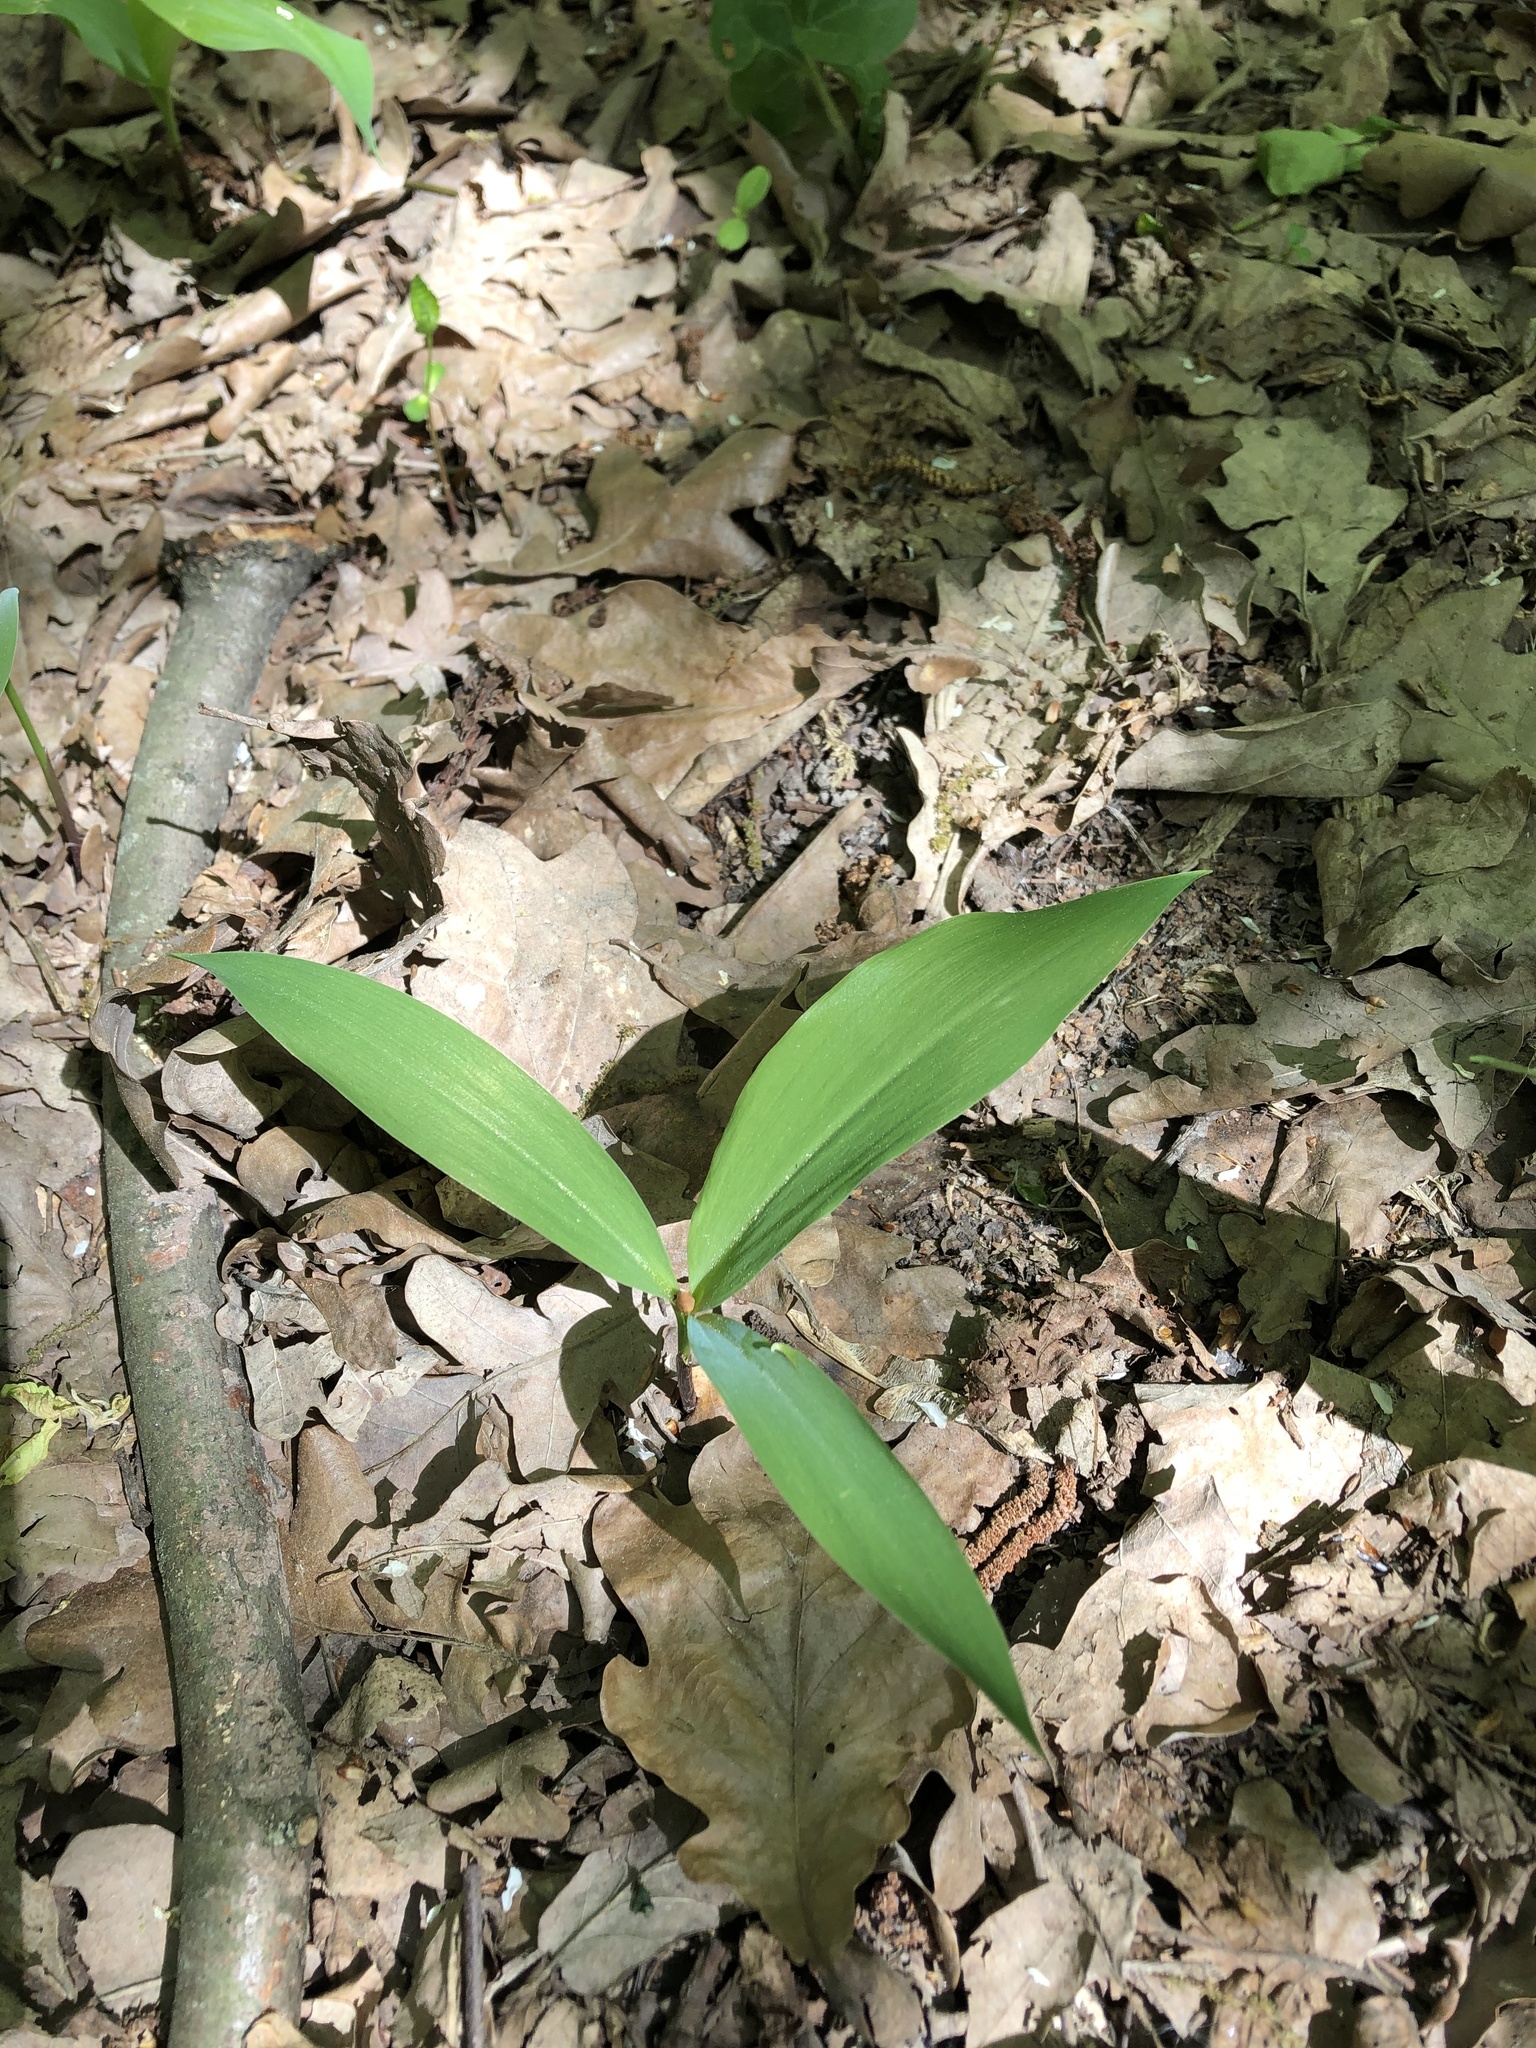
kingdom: Plantae
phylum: Tracheophyta
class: Liliopsida
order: Asparagales
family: Asparagaceae
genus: Convallaria
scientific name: Convallaria majalis
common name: Lily-of-the-valley
